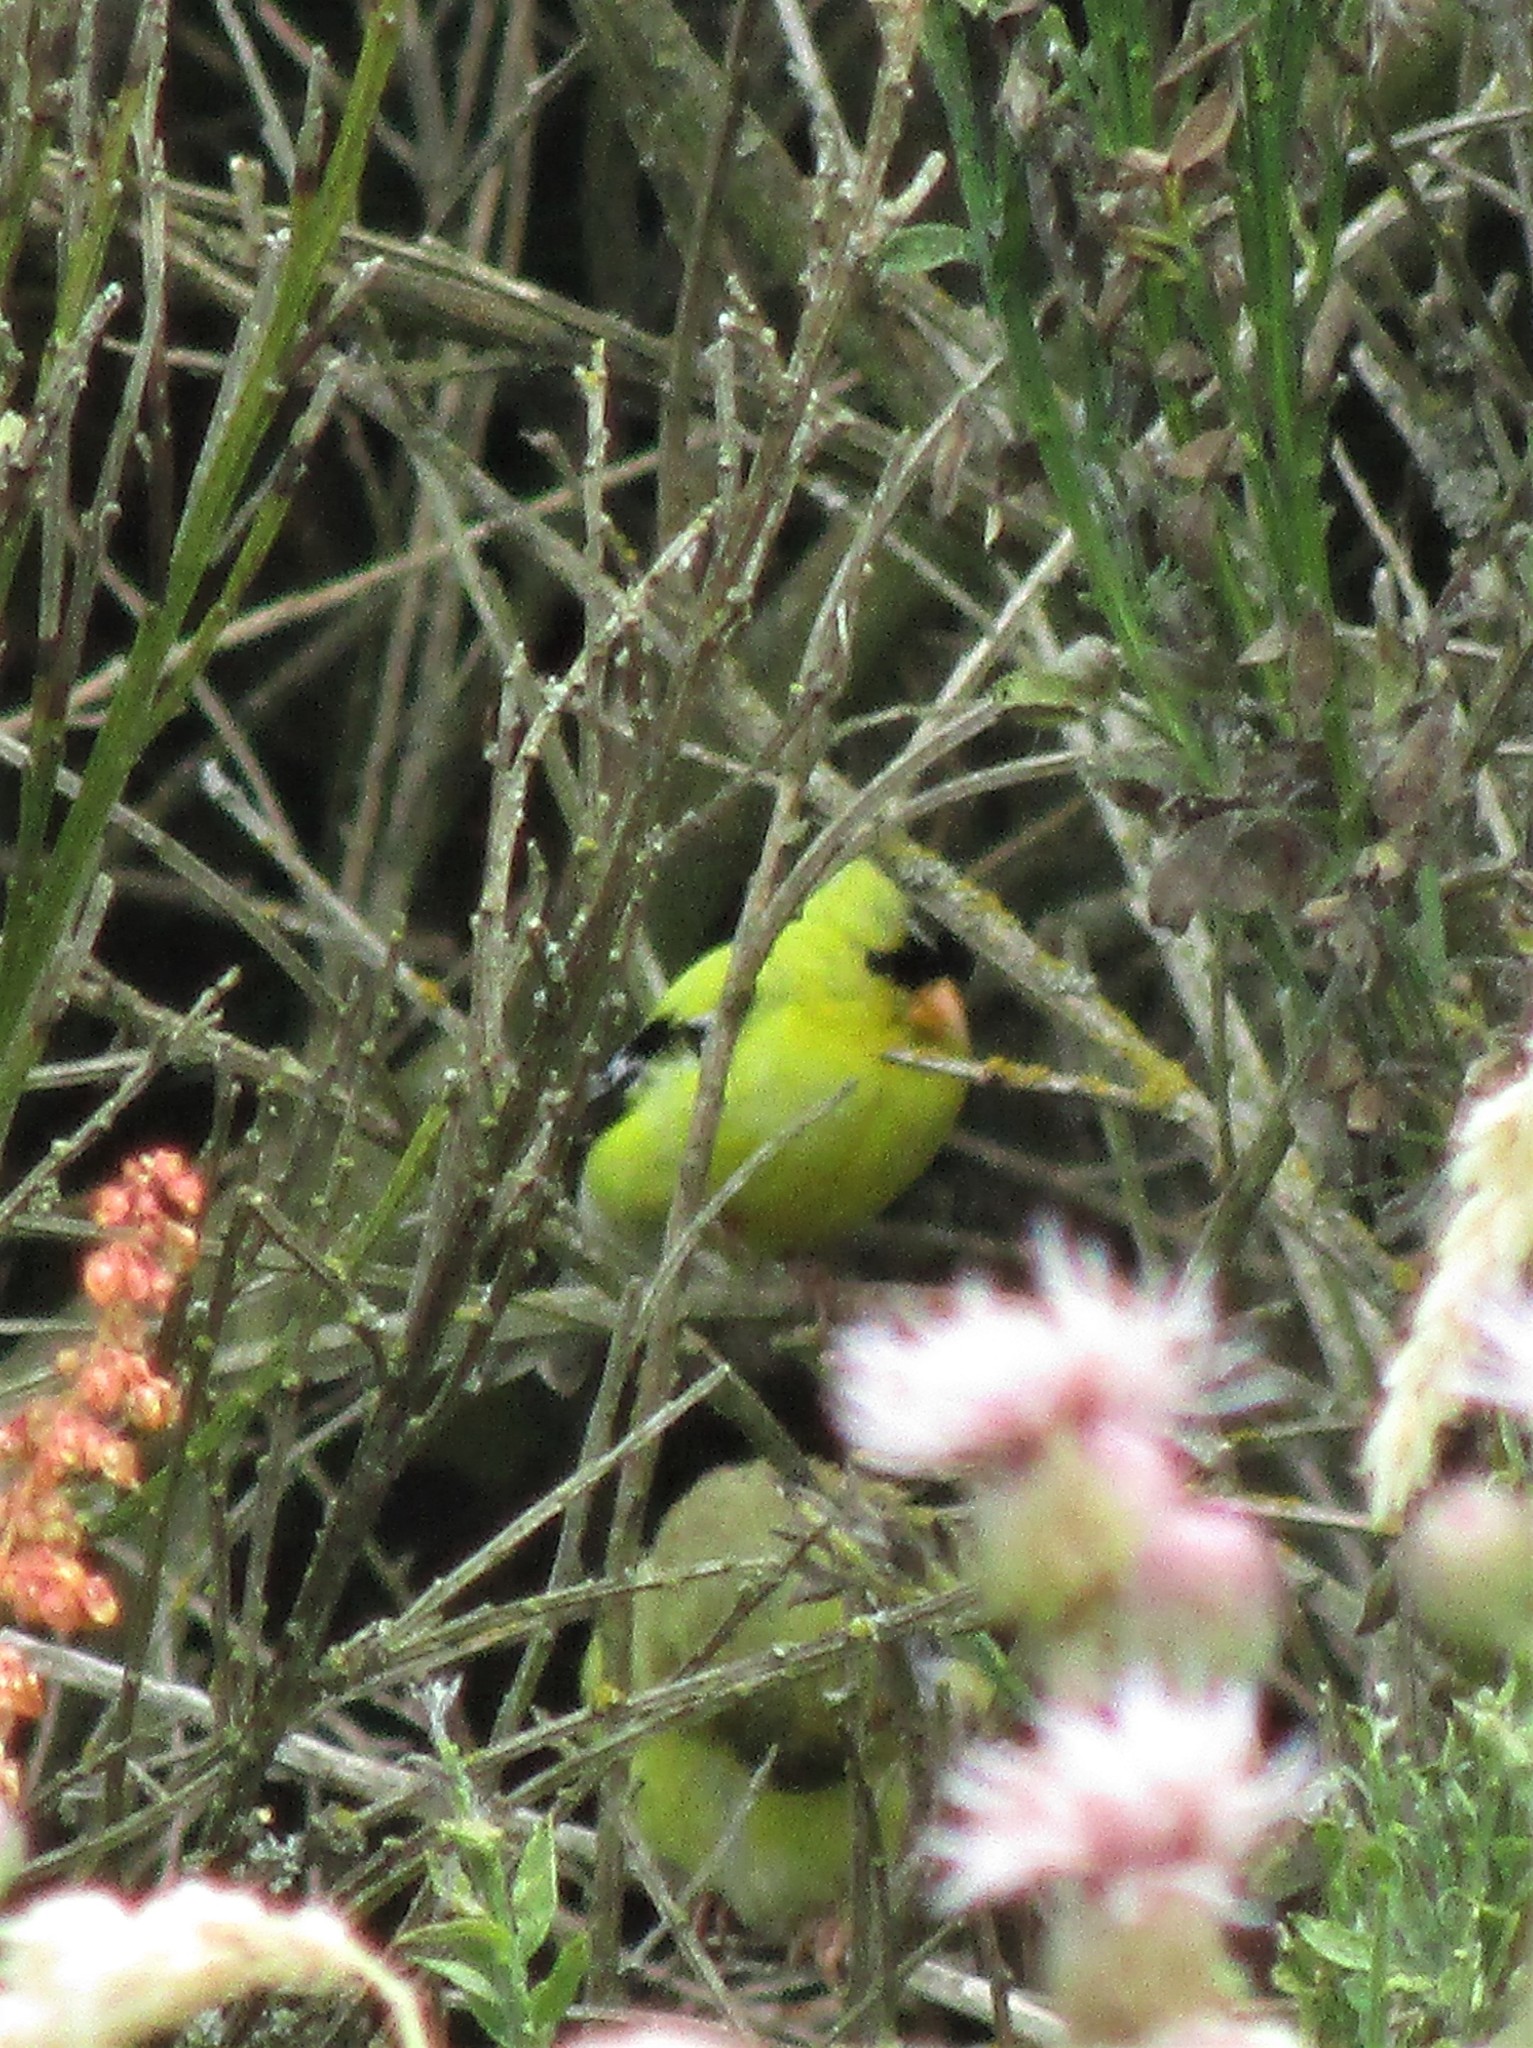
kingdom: Animalia
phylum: Chordata
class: Aves
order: Passeriformes
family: Fringillidae
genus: Spinus
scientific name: Spinus tristis
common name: American goldfinch
